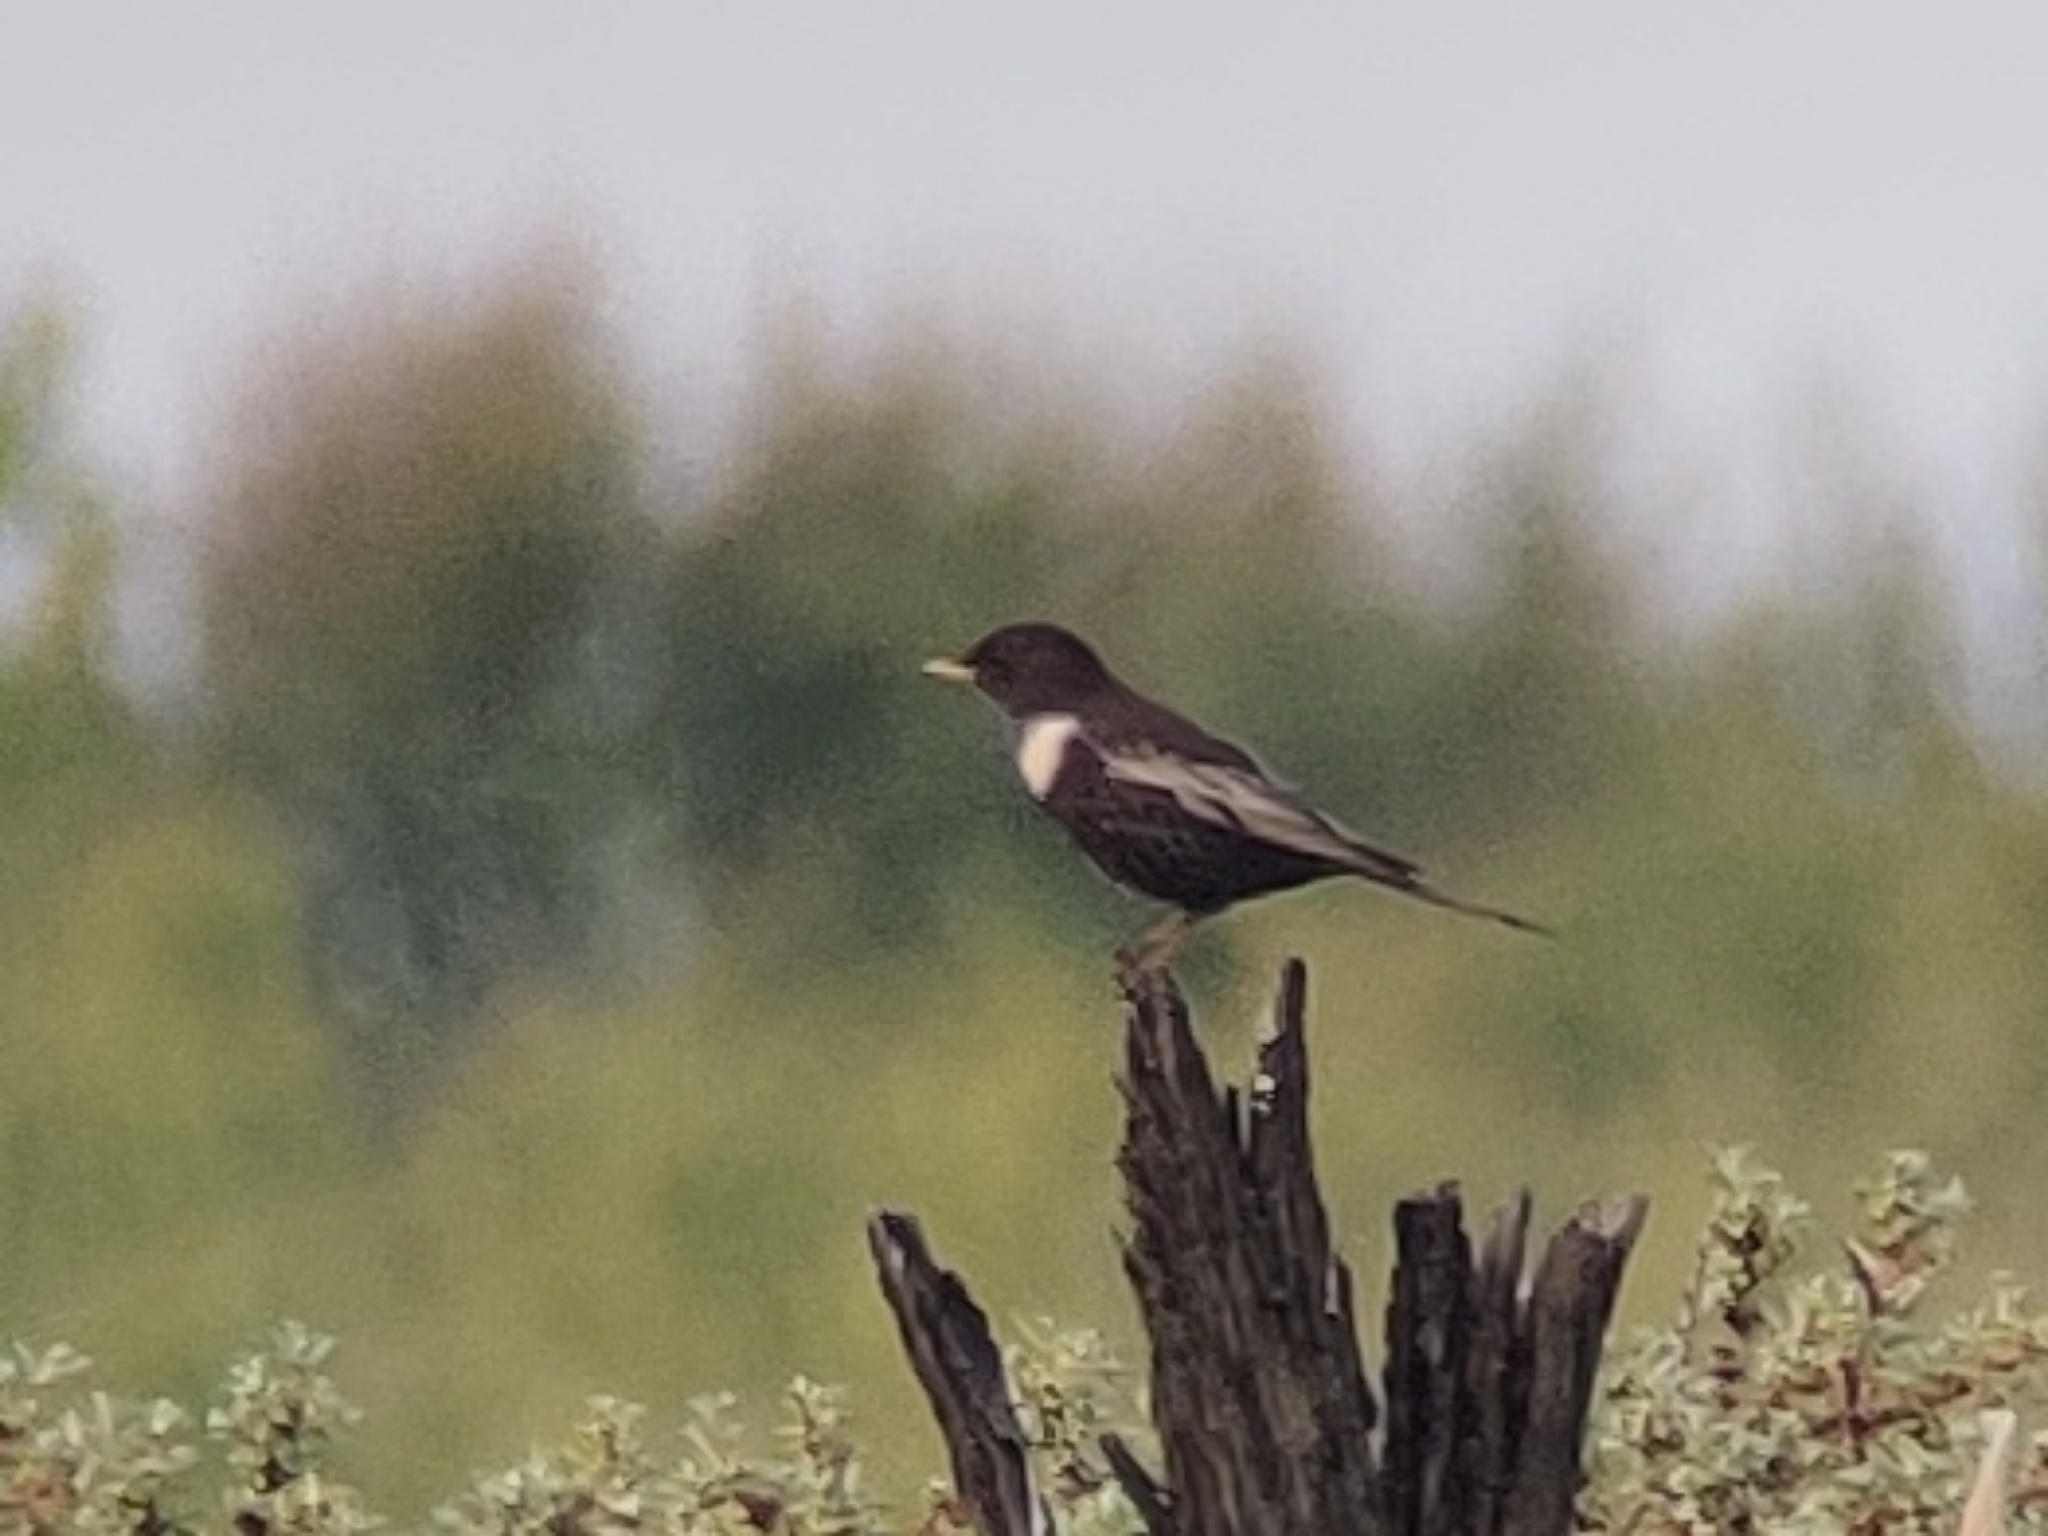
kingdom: Animalia
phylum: Chordata
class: Aves
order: Passeriformes
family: Turdidae
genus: Turdus
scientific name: Turdus torquatus
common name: Ring ouzel
